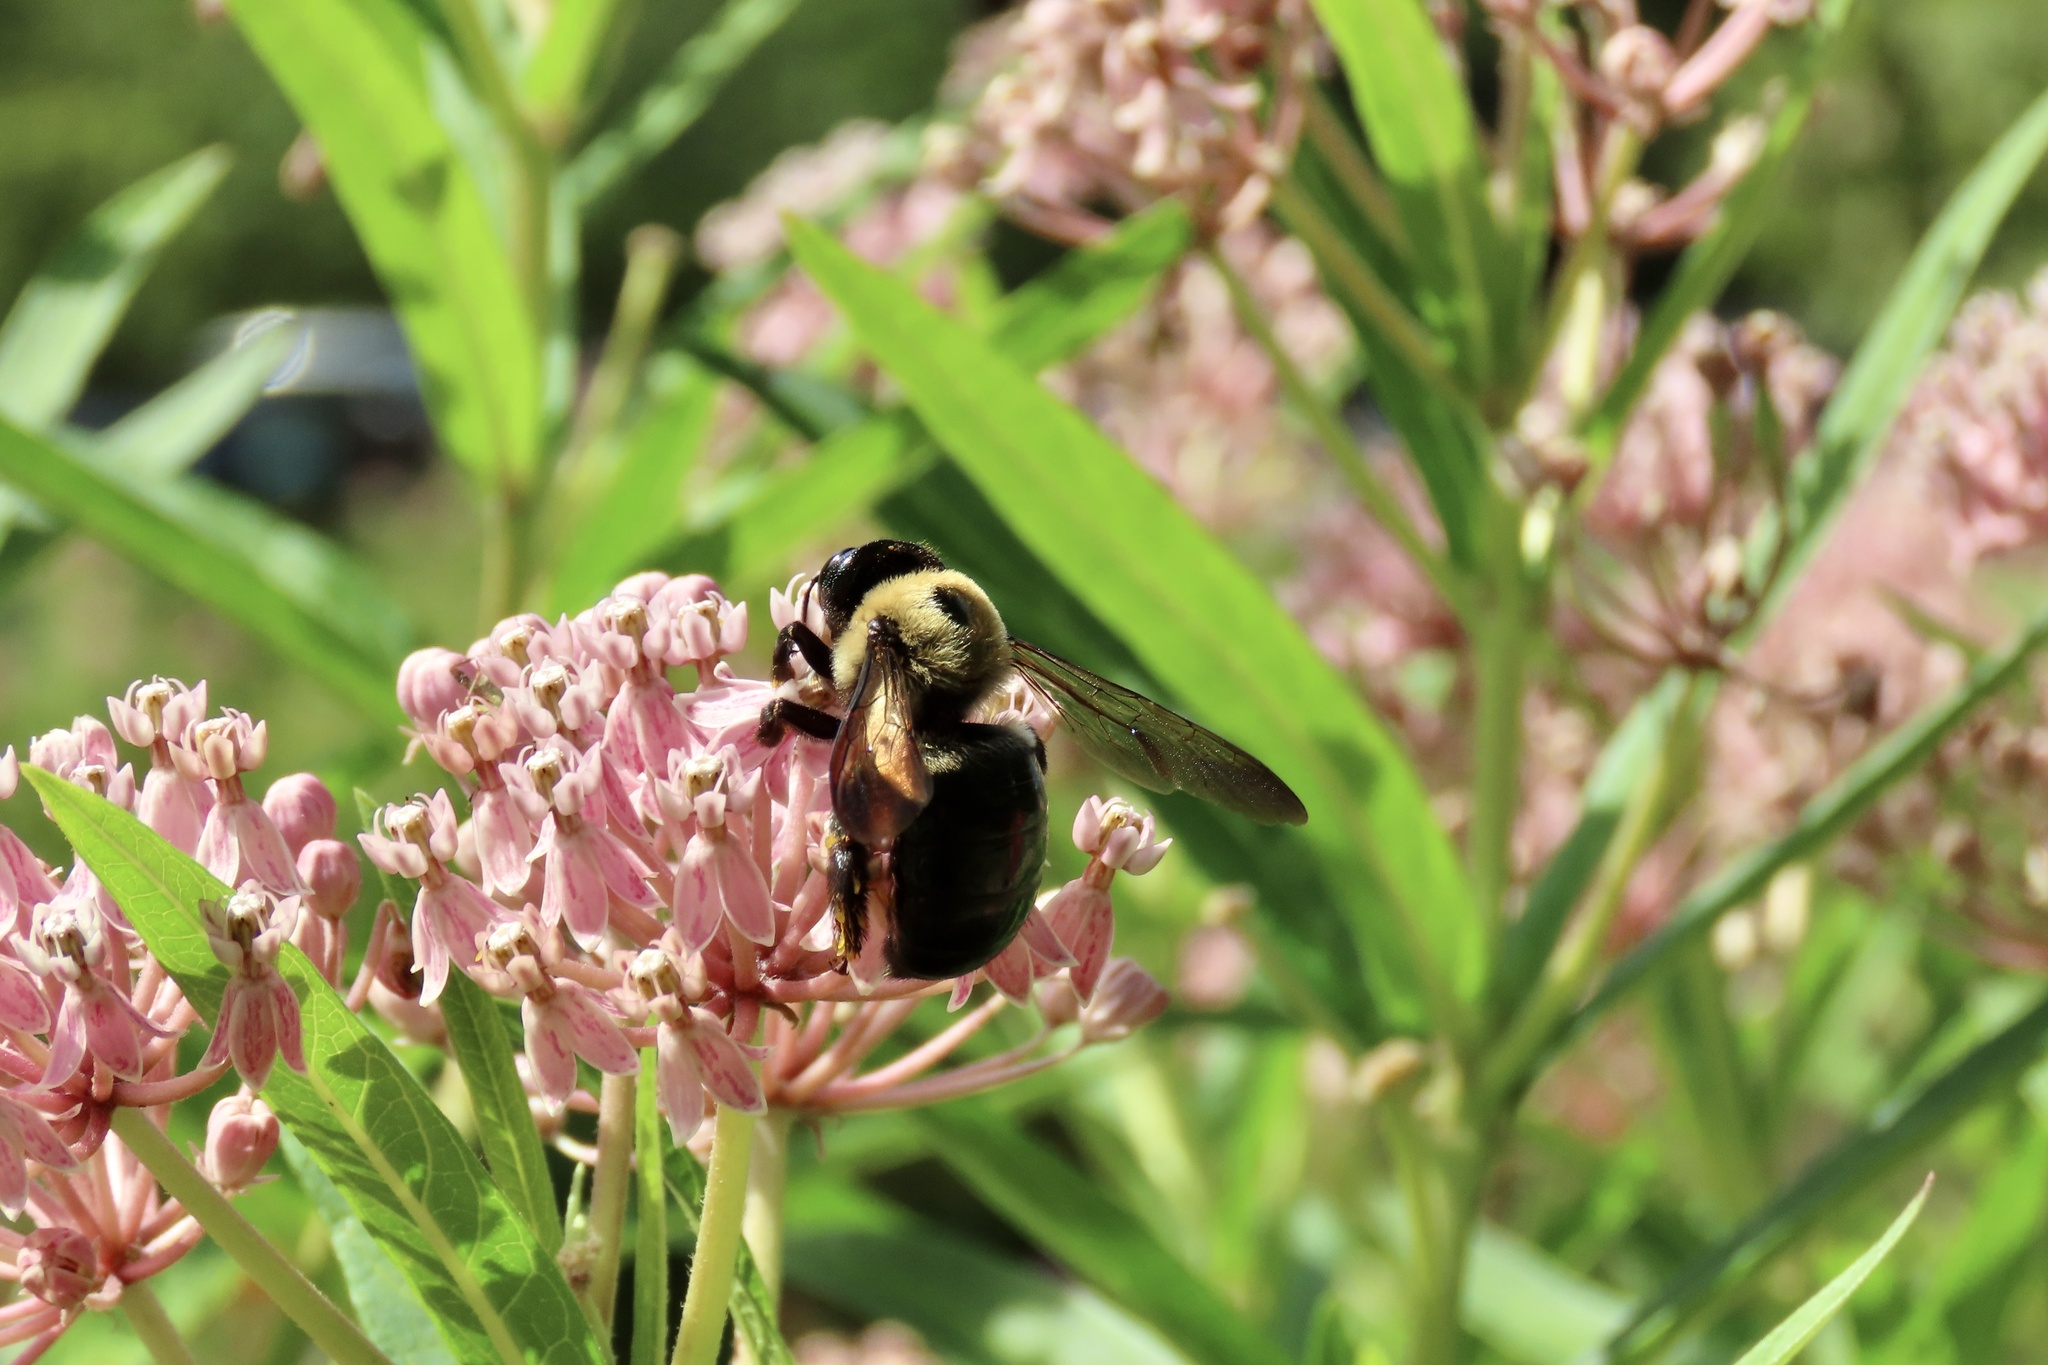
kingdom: Animalia
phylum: Arthropoda
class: Insecta
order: Hymenoptera
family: Apidae
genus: Xylocopa
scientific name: Xylocopa virginica
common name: Carpenter bee
